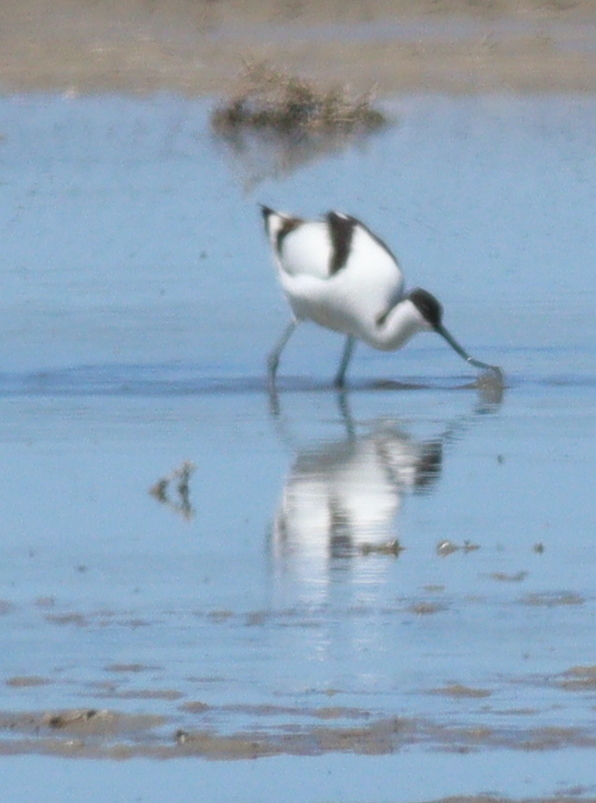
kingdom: Animalia
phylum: Chordata
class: Aves
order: Charadriiformes
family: Recurvirostridae
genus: Recurvirostra
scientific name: Recurvirostra avosetta
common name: Pied avocet
